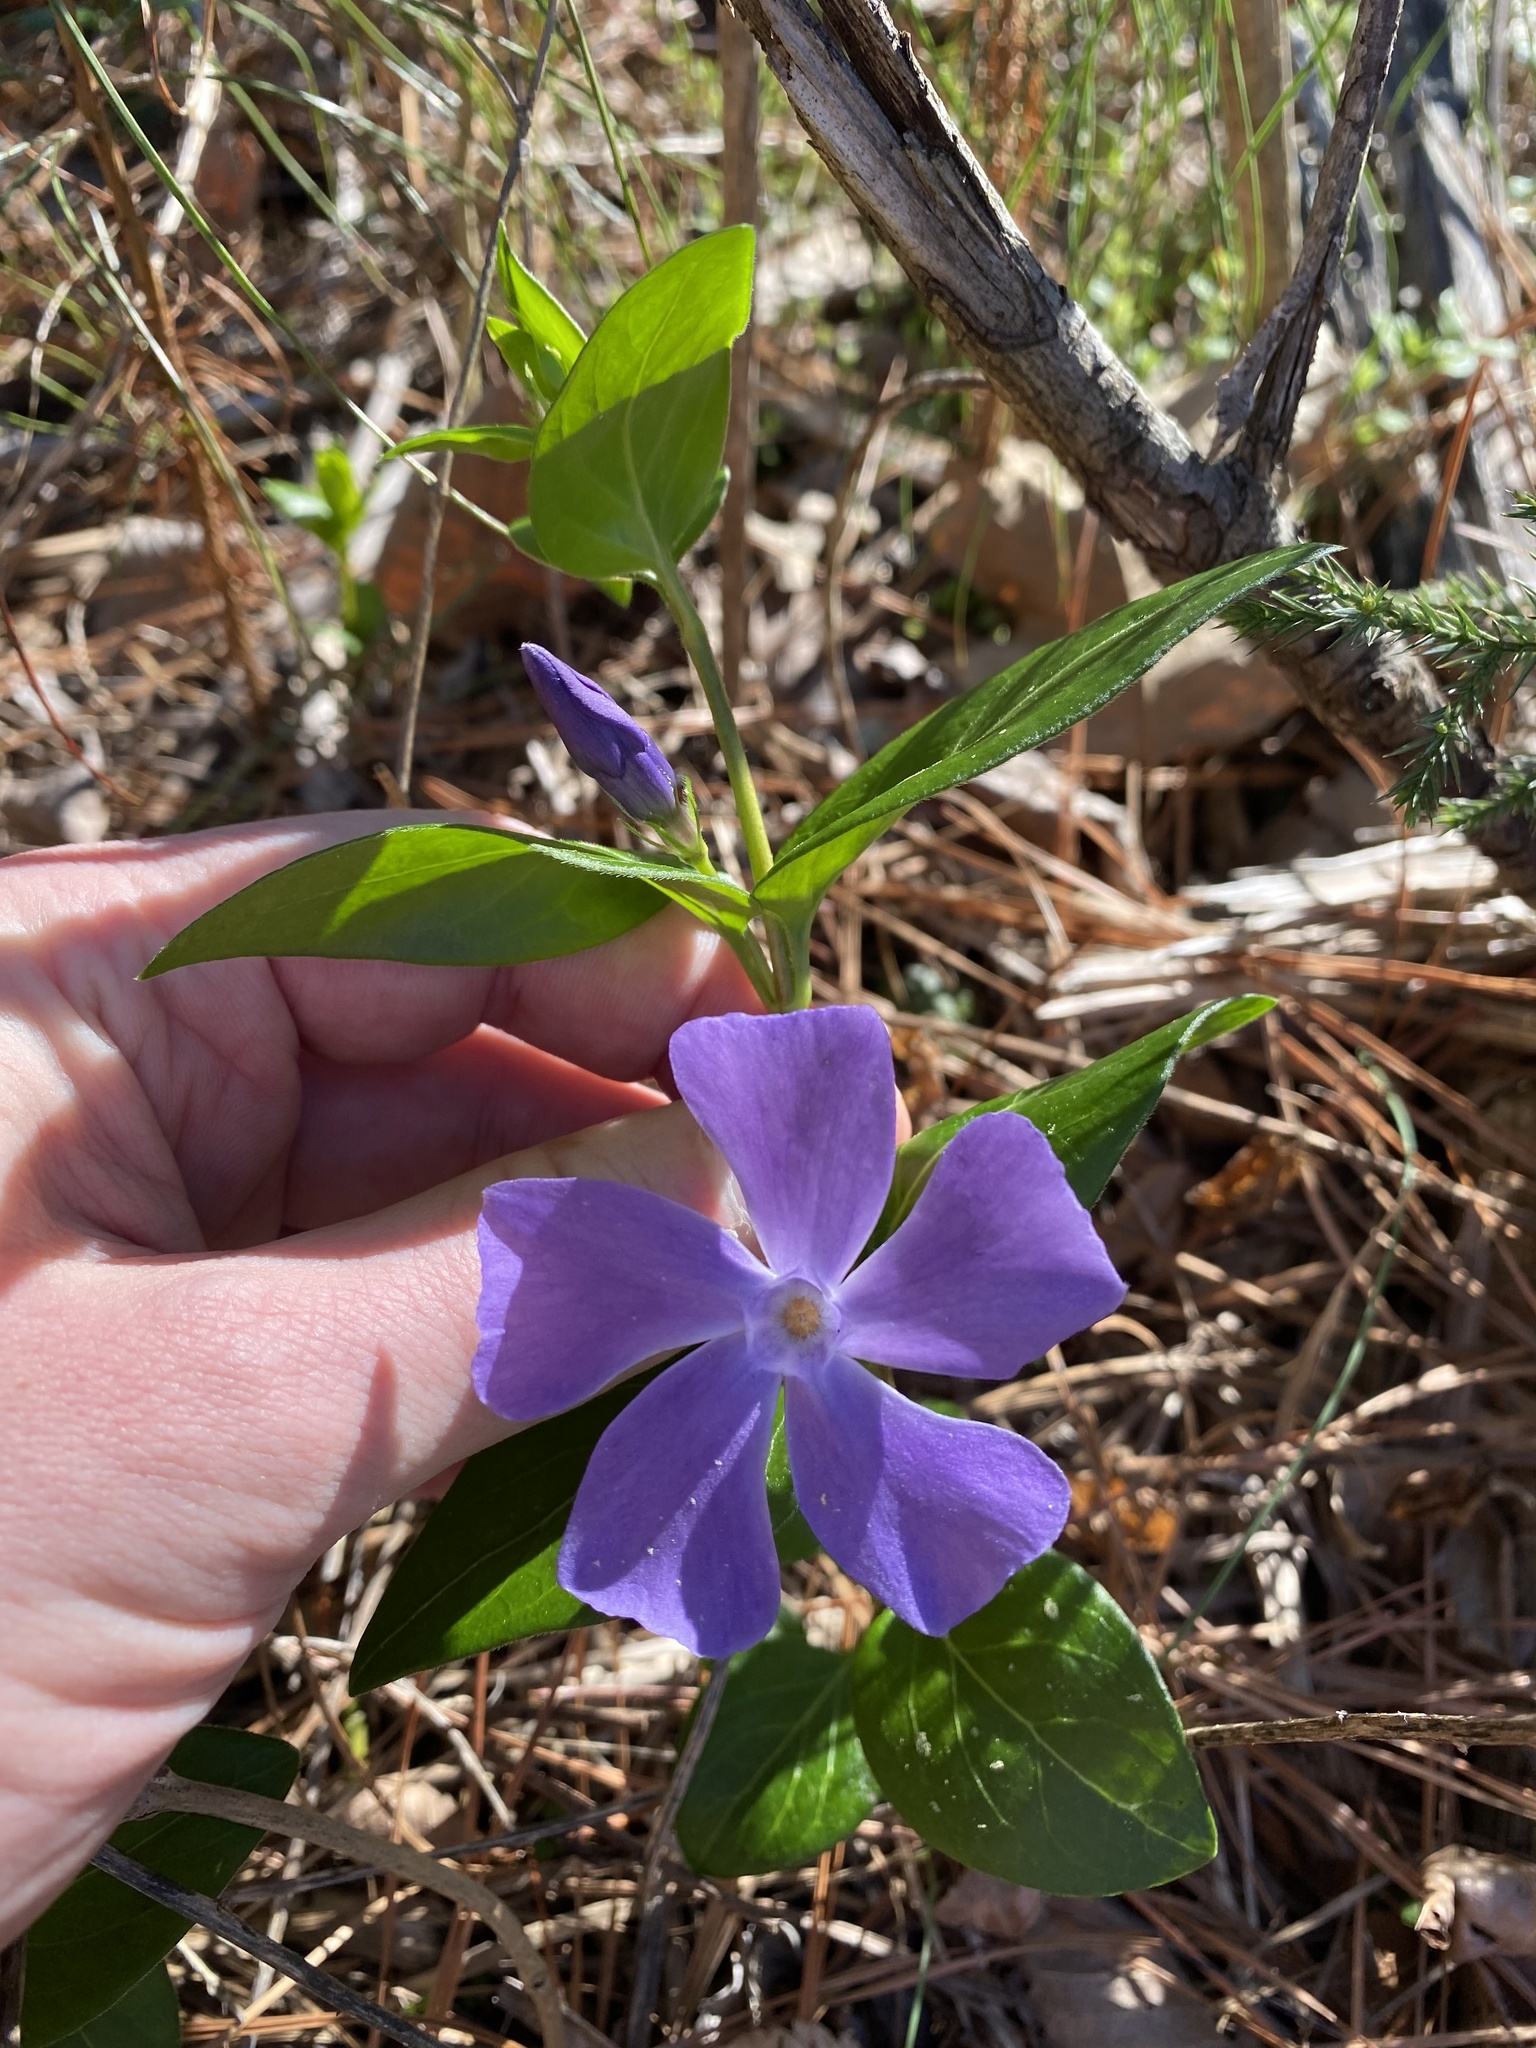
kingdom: Plantae
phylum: Tracheophyta
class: Magnoliopsida
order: Gentianales
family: Apocynaceae
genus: Vinca
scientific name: Vinca major
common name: Greater periwinkle
